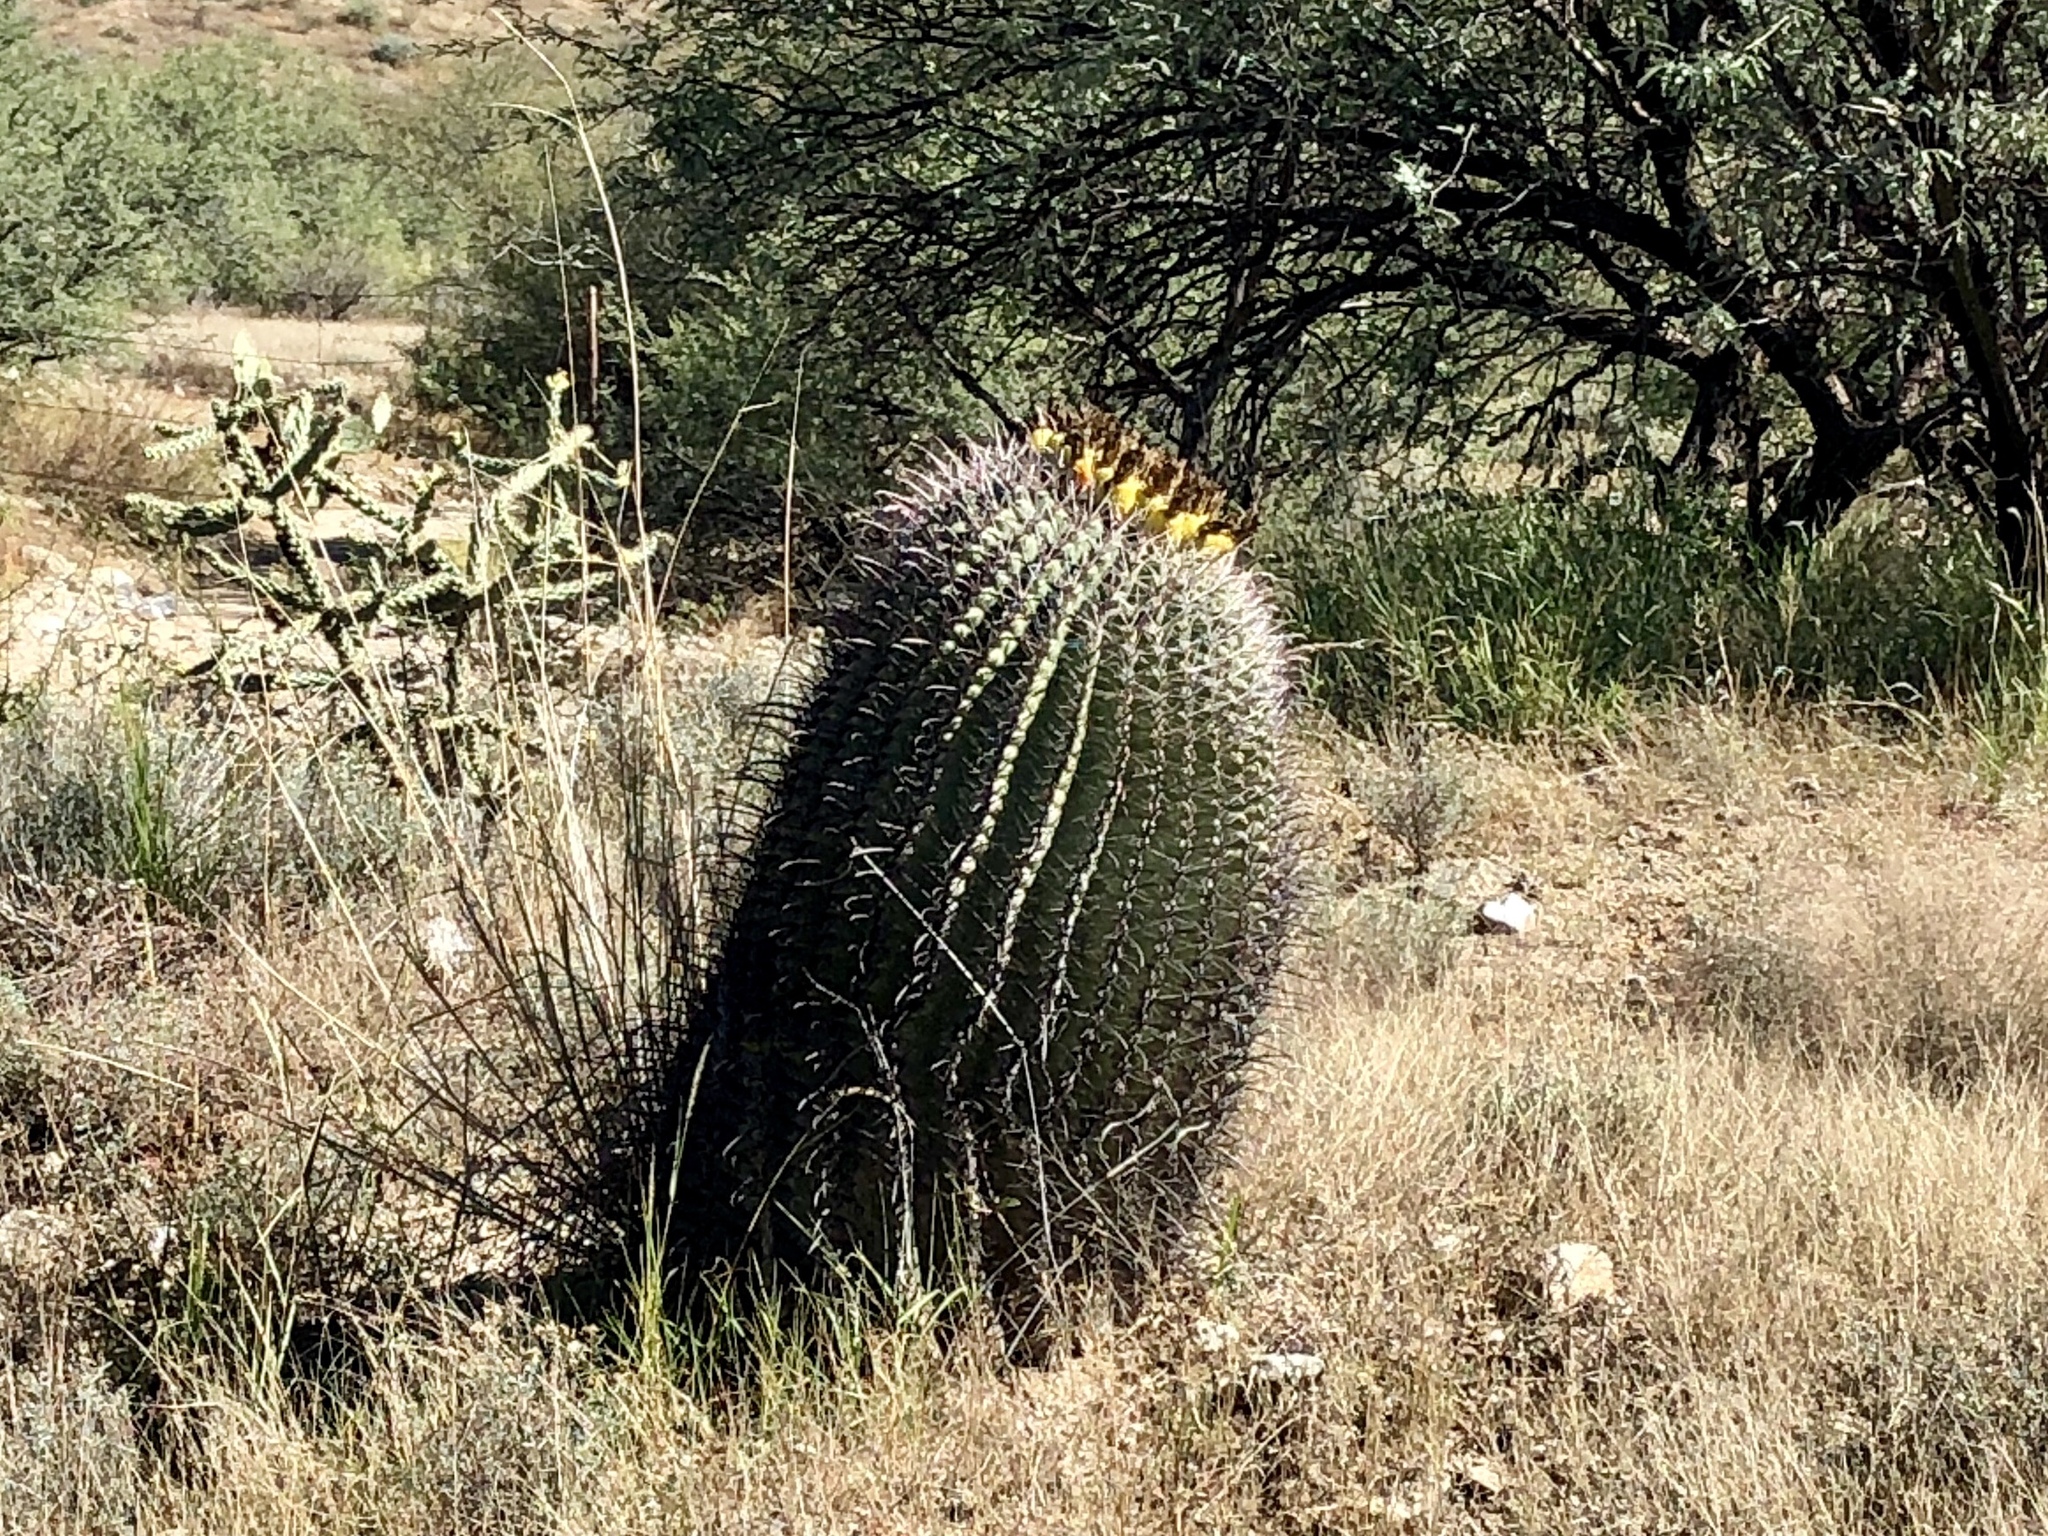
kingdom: Plantae
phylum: Tracheophyta
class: Magnoliopsida
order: Caryophyllales
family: Cactaceae
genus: Ferocactus
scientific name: Ferocactus wislizeni
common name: Candy barrel cactus
